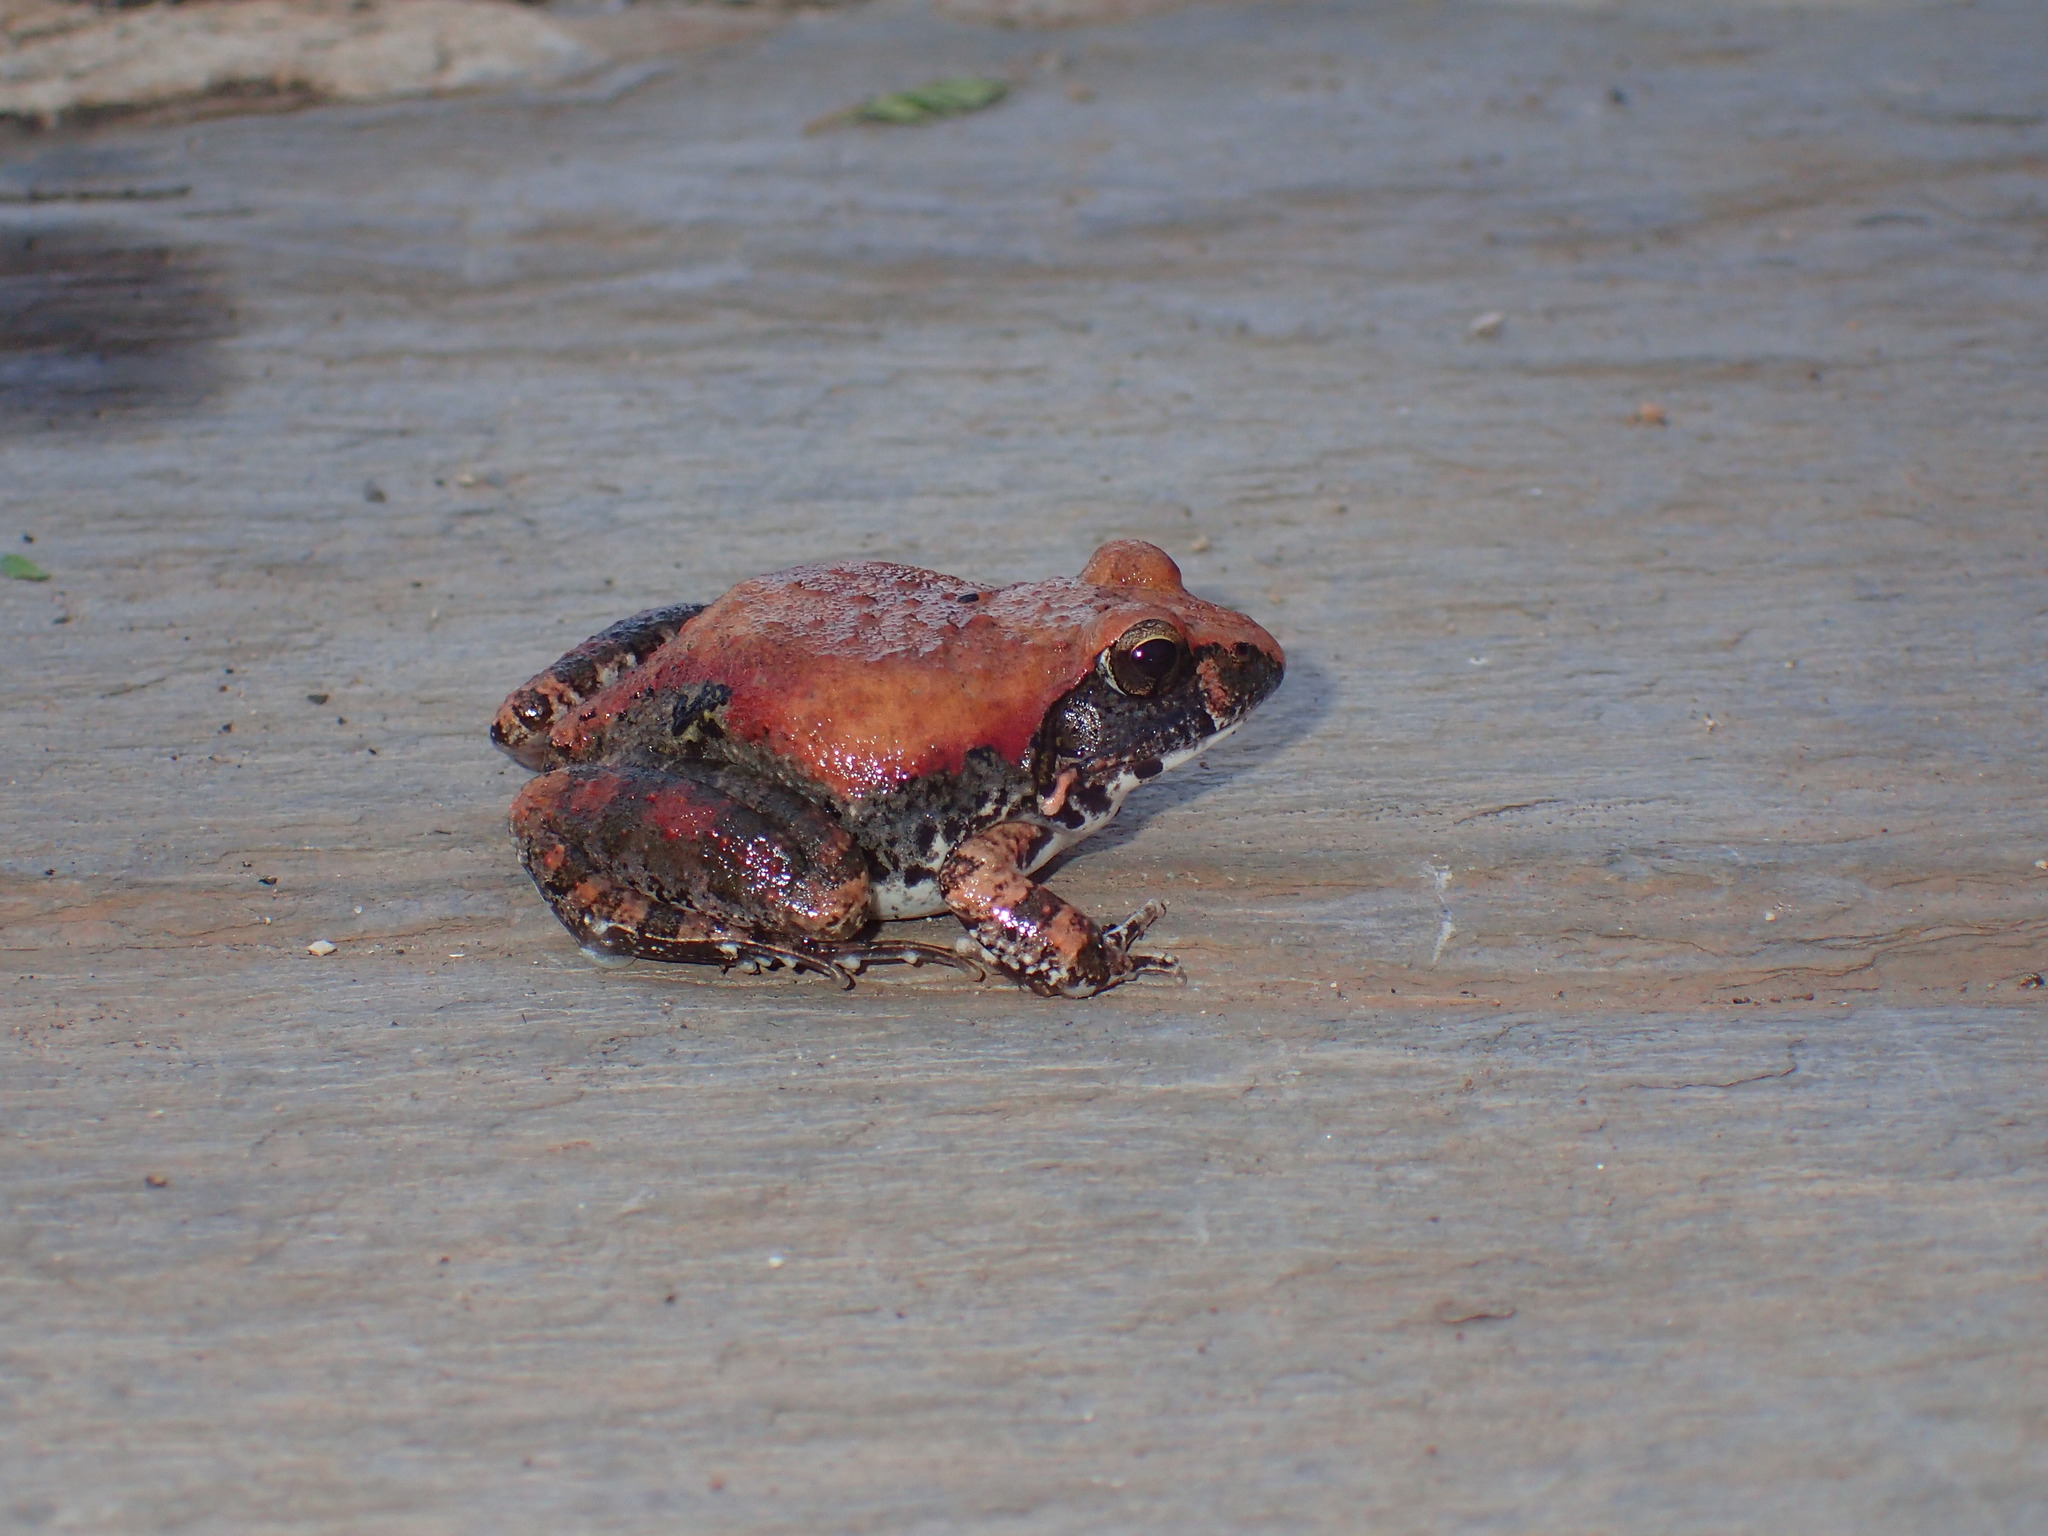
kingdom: Animalia
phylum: Chordata
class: Amphibia
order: Anura
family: Pyxicephalidae
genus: Tomopterna
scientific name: Tomopterna natalensis
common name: Natal sand frog
